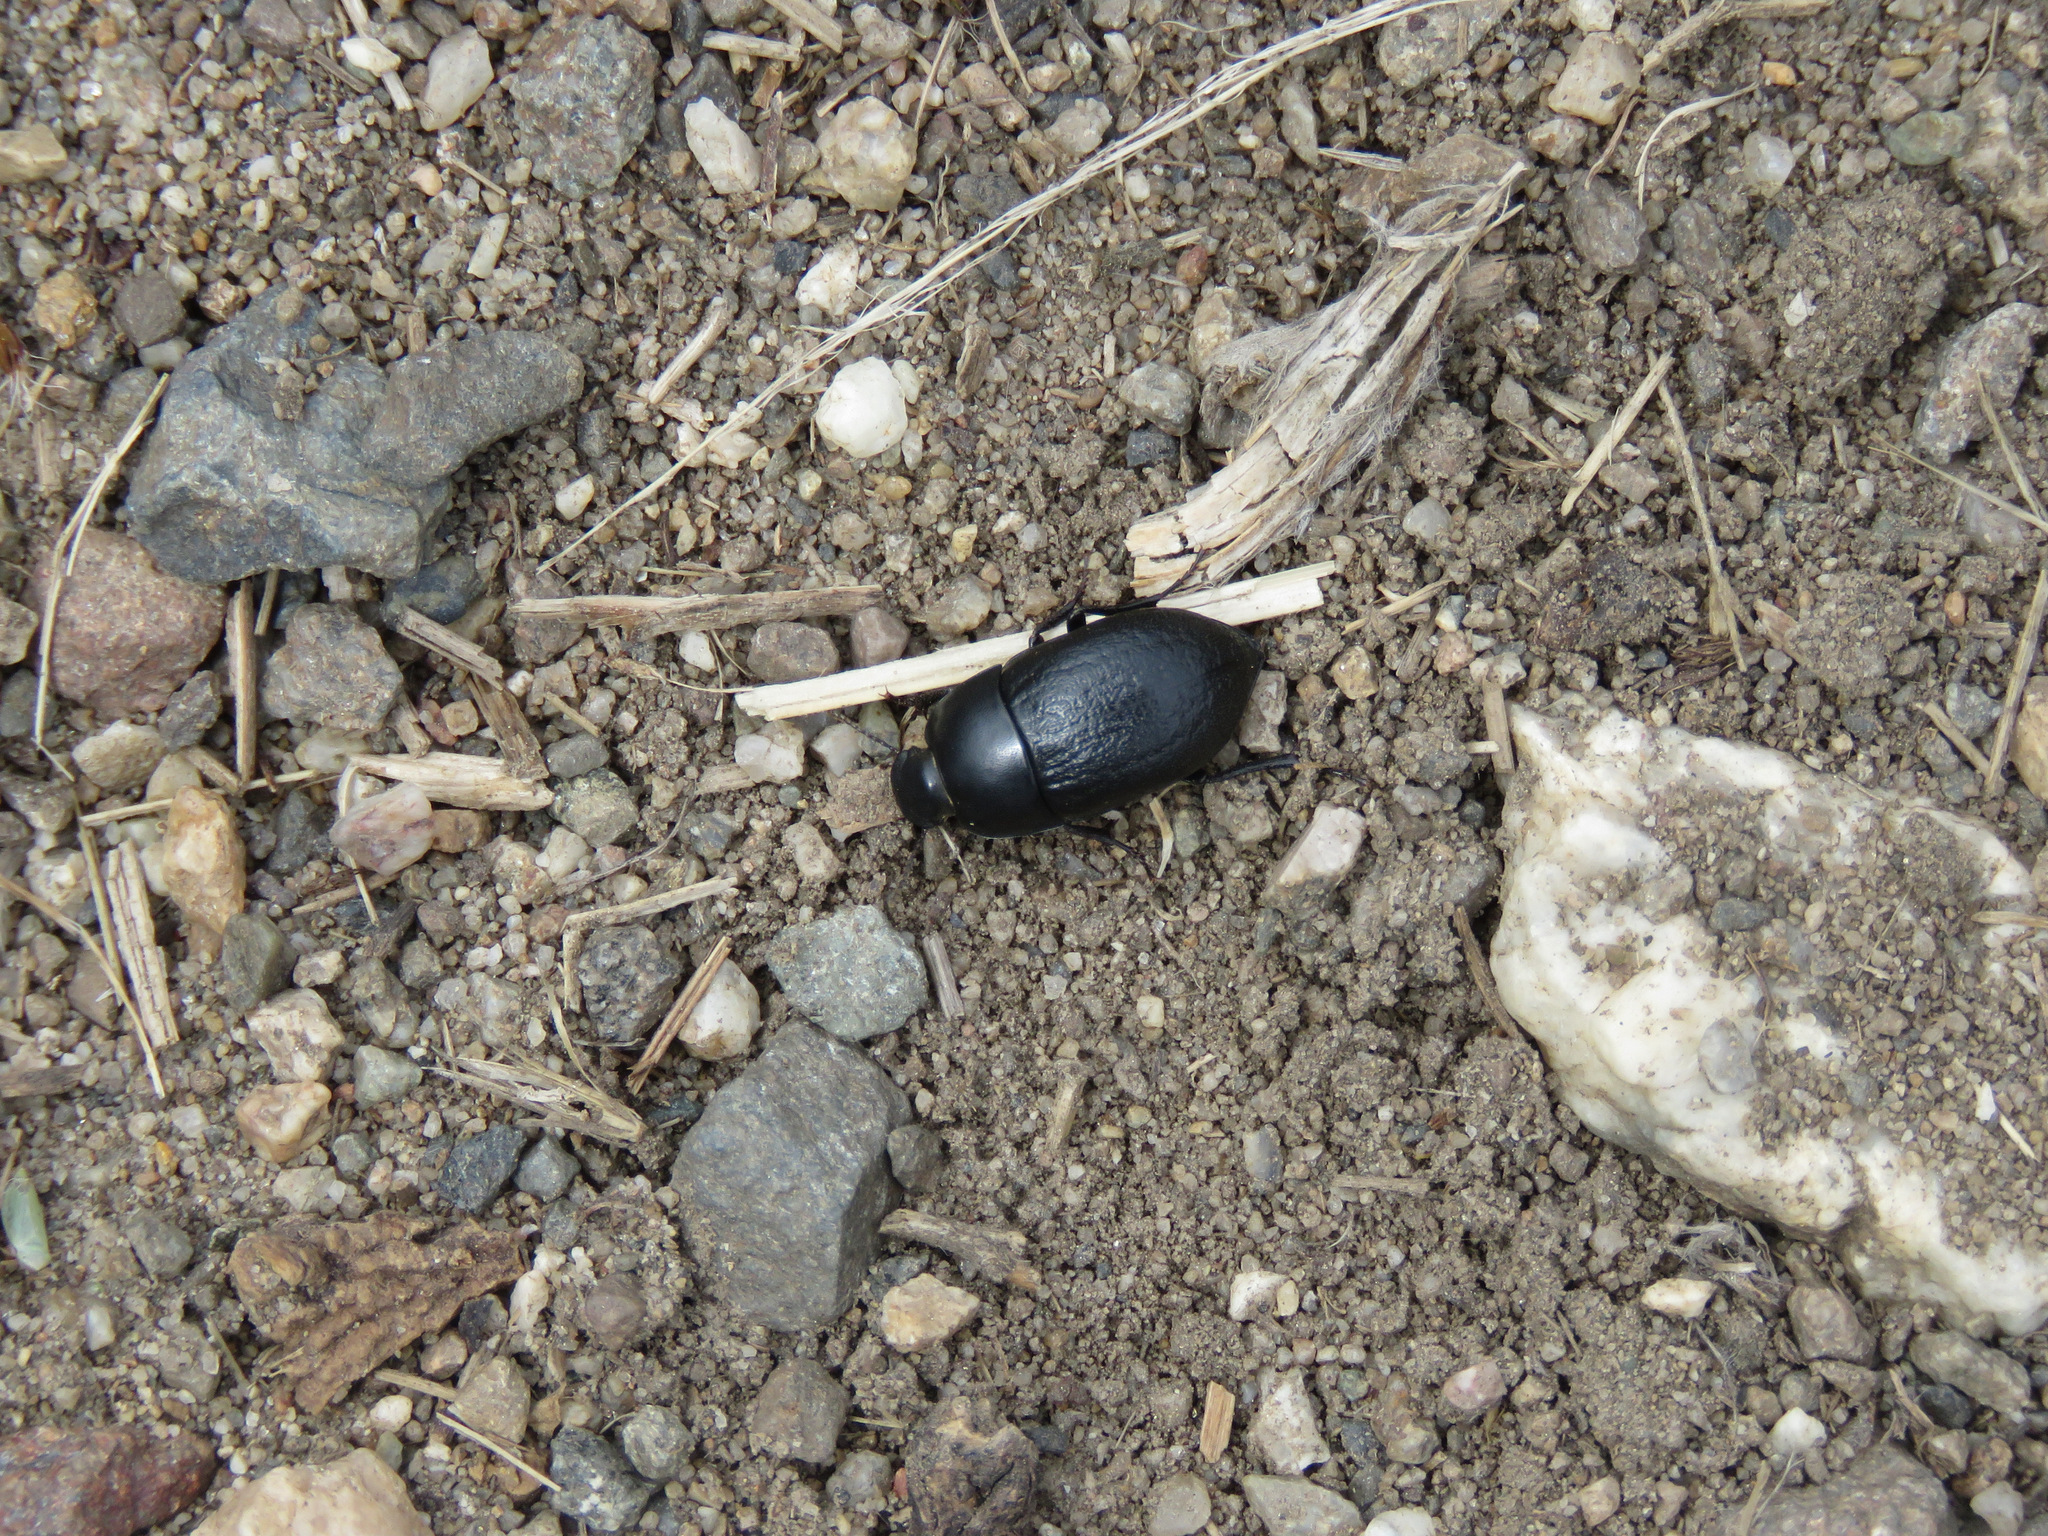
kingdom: Animalia
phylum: Arthropoda
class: Insecta
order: Coleoptera
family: Tenebrionidae
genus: Coniontis
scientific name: Coniontis
